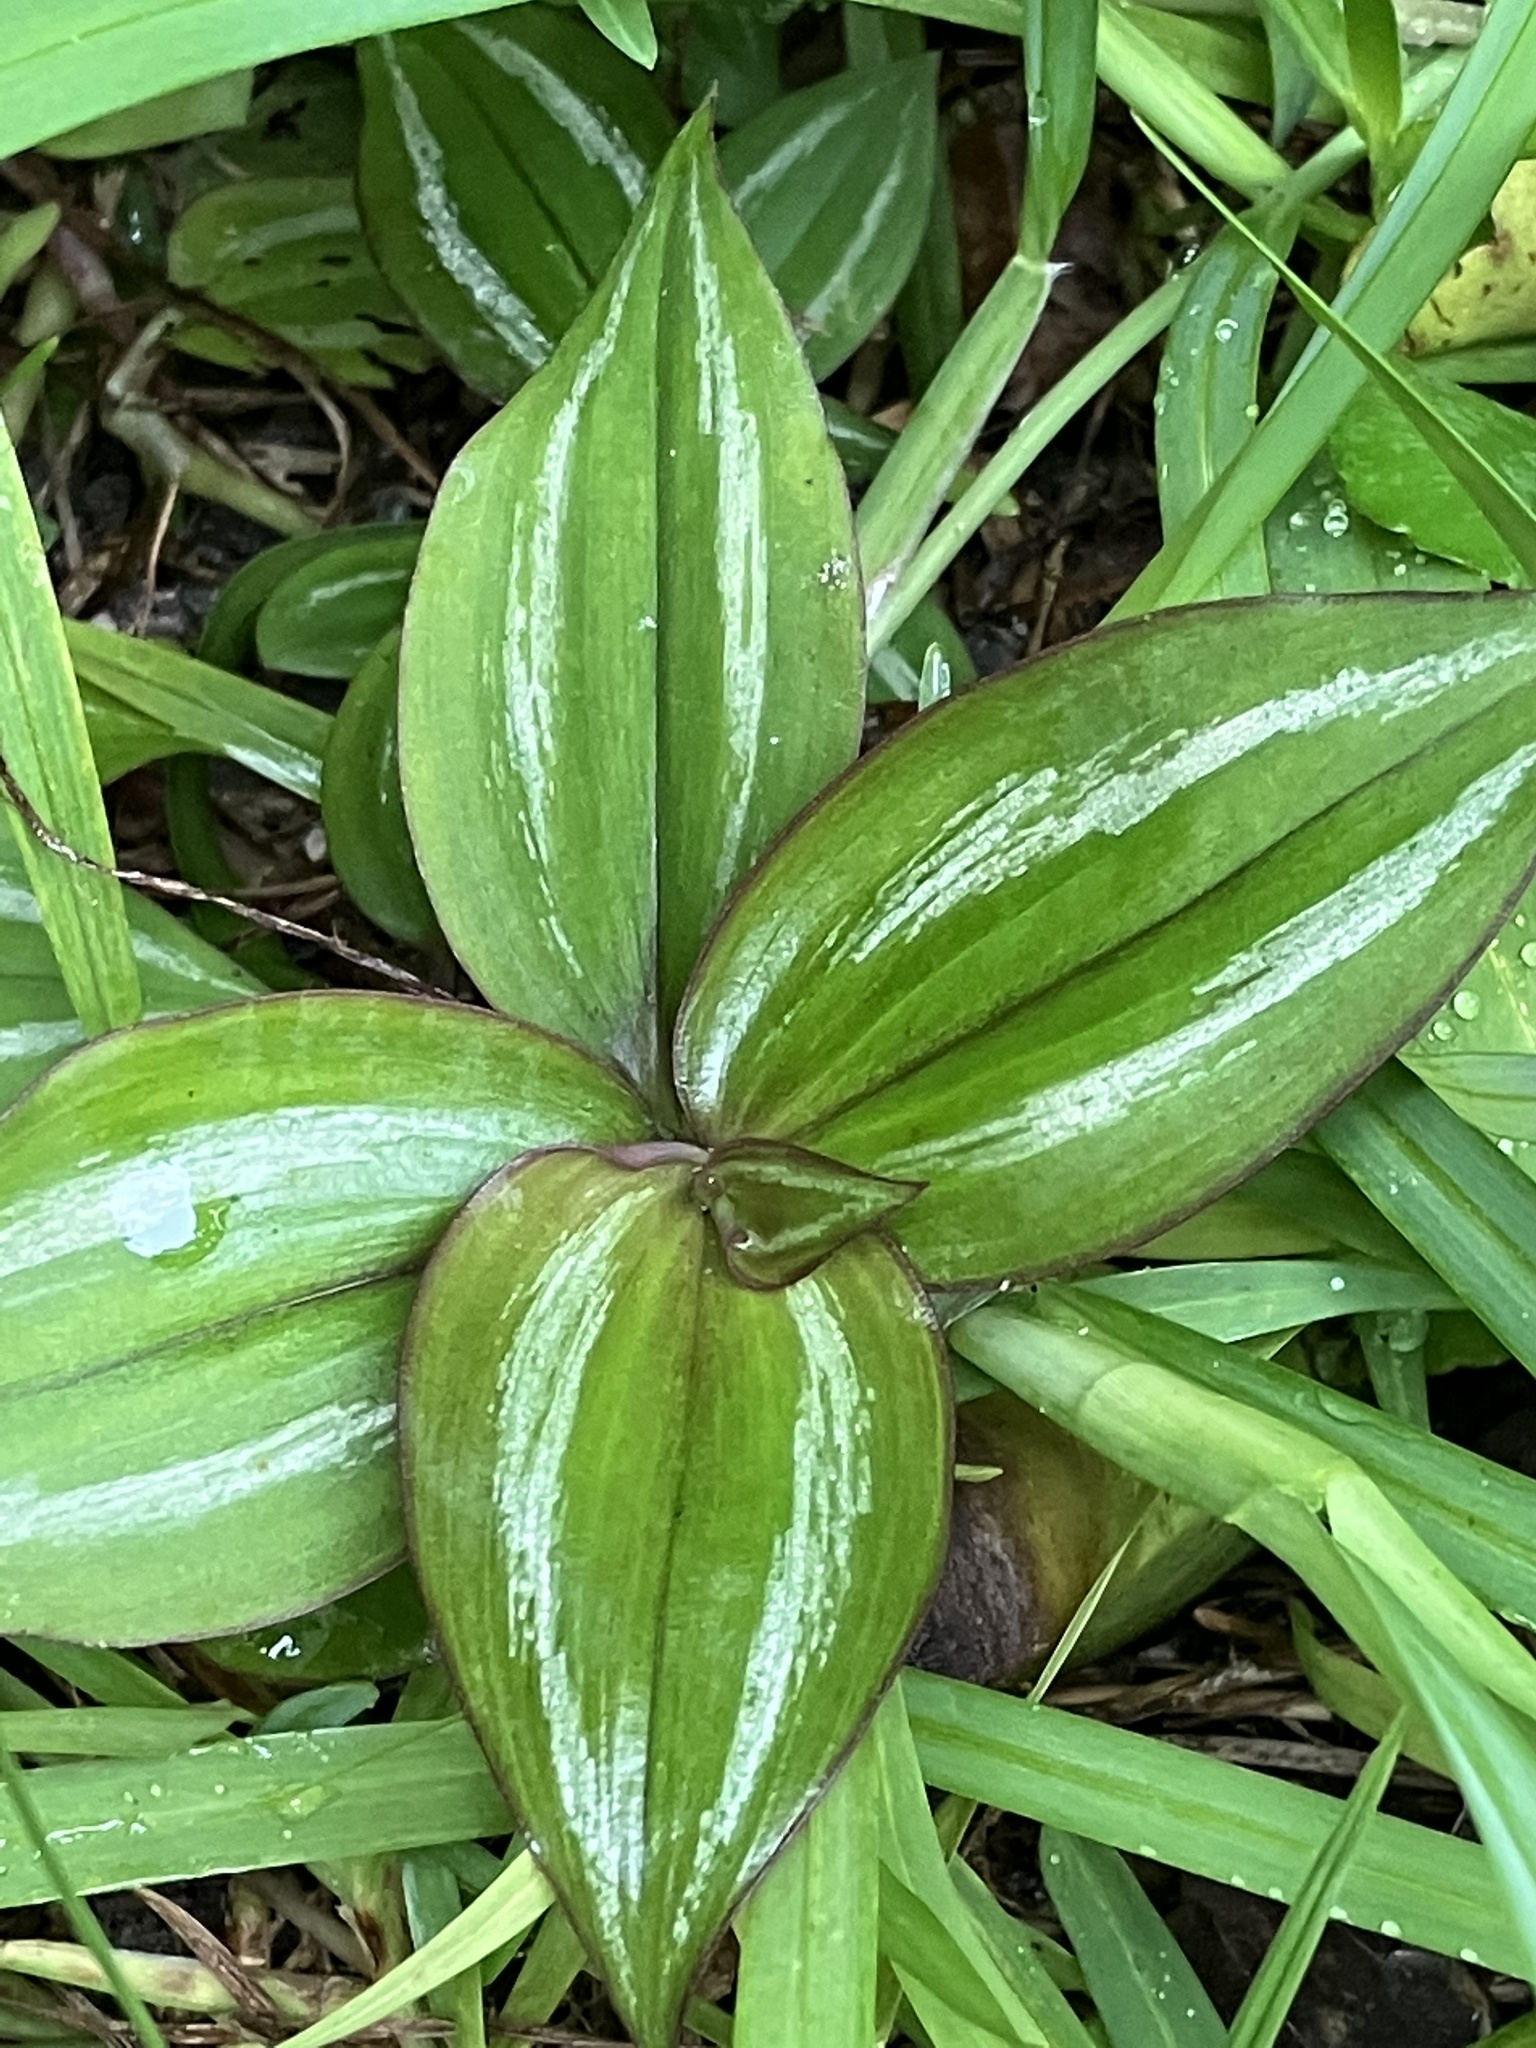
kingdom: Plantae
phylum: Tracheophyta
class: Liliopsida
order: Commelinales
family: Commelinaceae
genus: Tradescantia
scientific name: Tradescantia zebrina
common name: Inchplant
